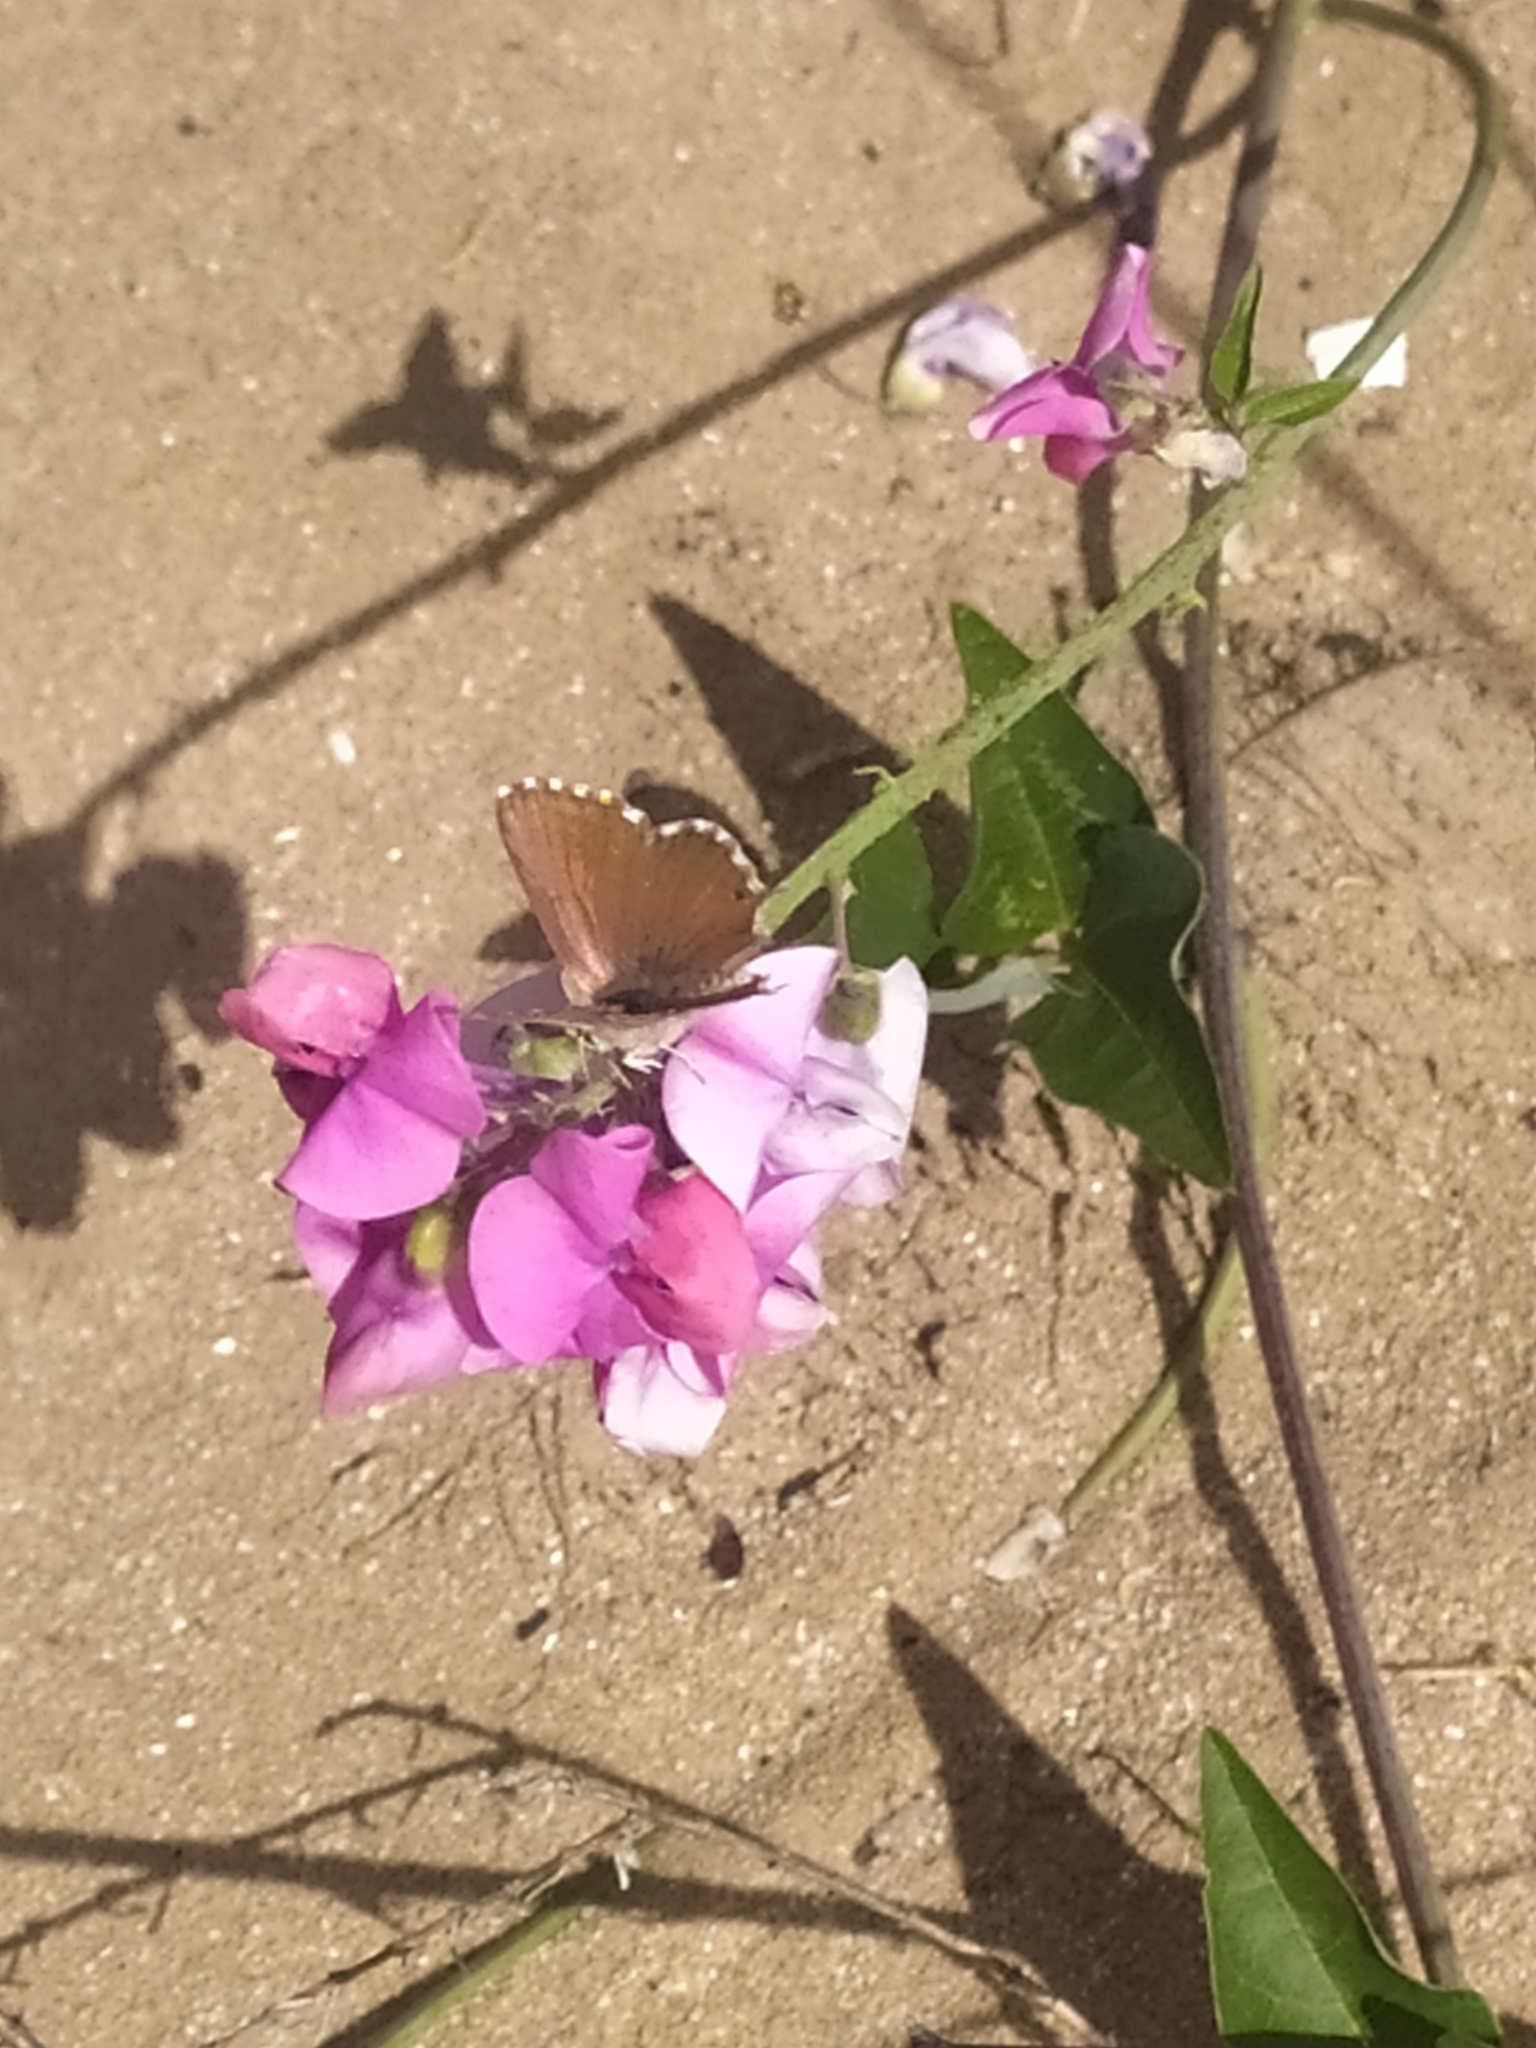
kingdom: Animalia
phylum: Arthropoda
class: Insecta
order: Lepidoptera
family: Lycaenidae
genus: Cacyreus
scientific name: Cacyreus marshalli
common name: Geranium bronze
